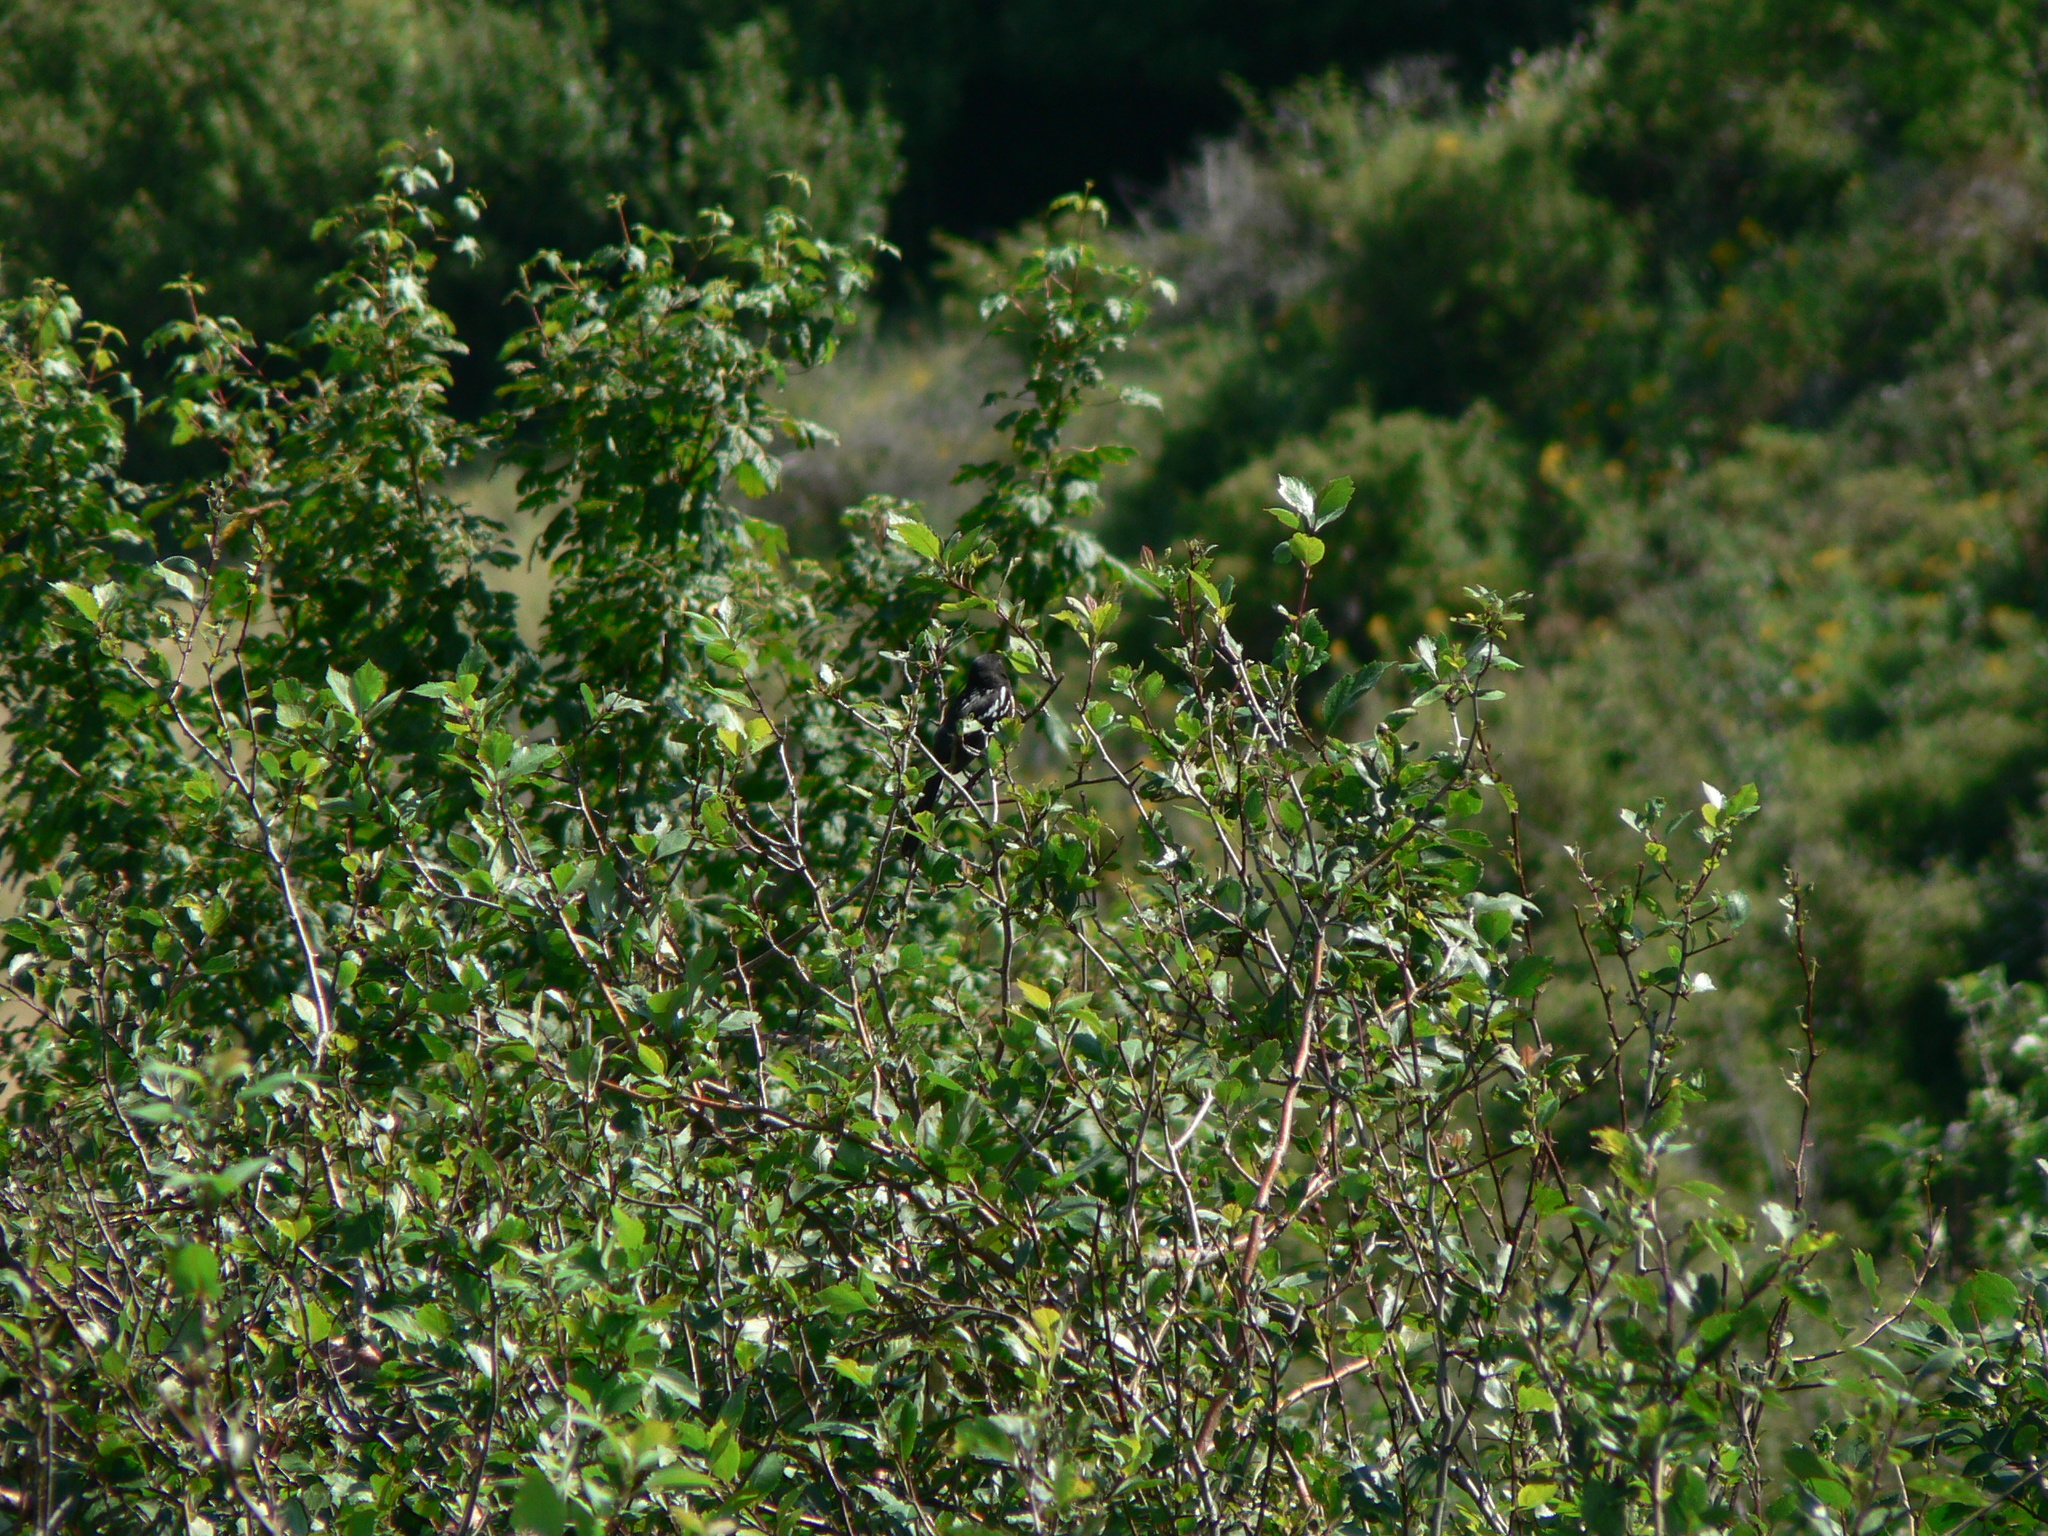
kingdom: Animalia
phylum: Chordata
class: Aves
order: Passeriformes
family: Passerellidae
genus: Pipilo
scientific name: Pipilo maculatus
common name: Spotted towhee
